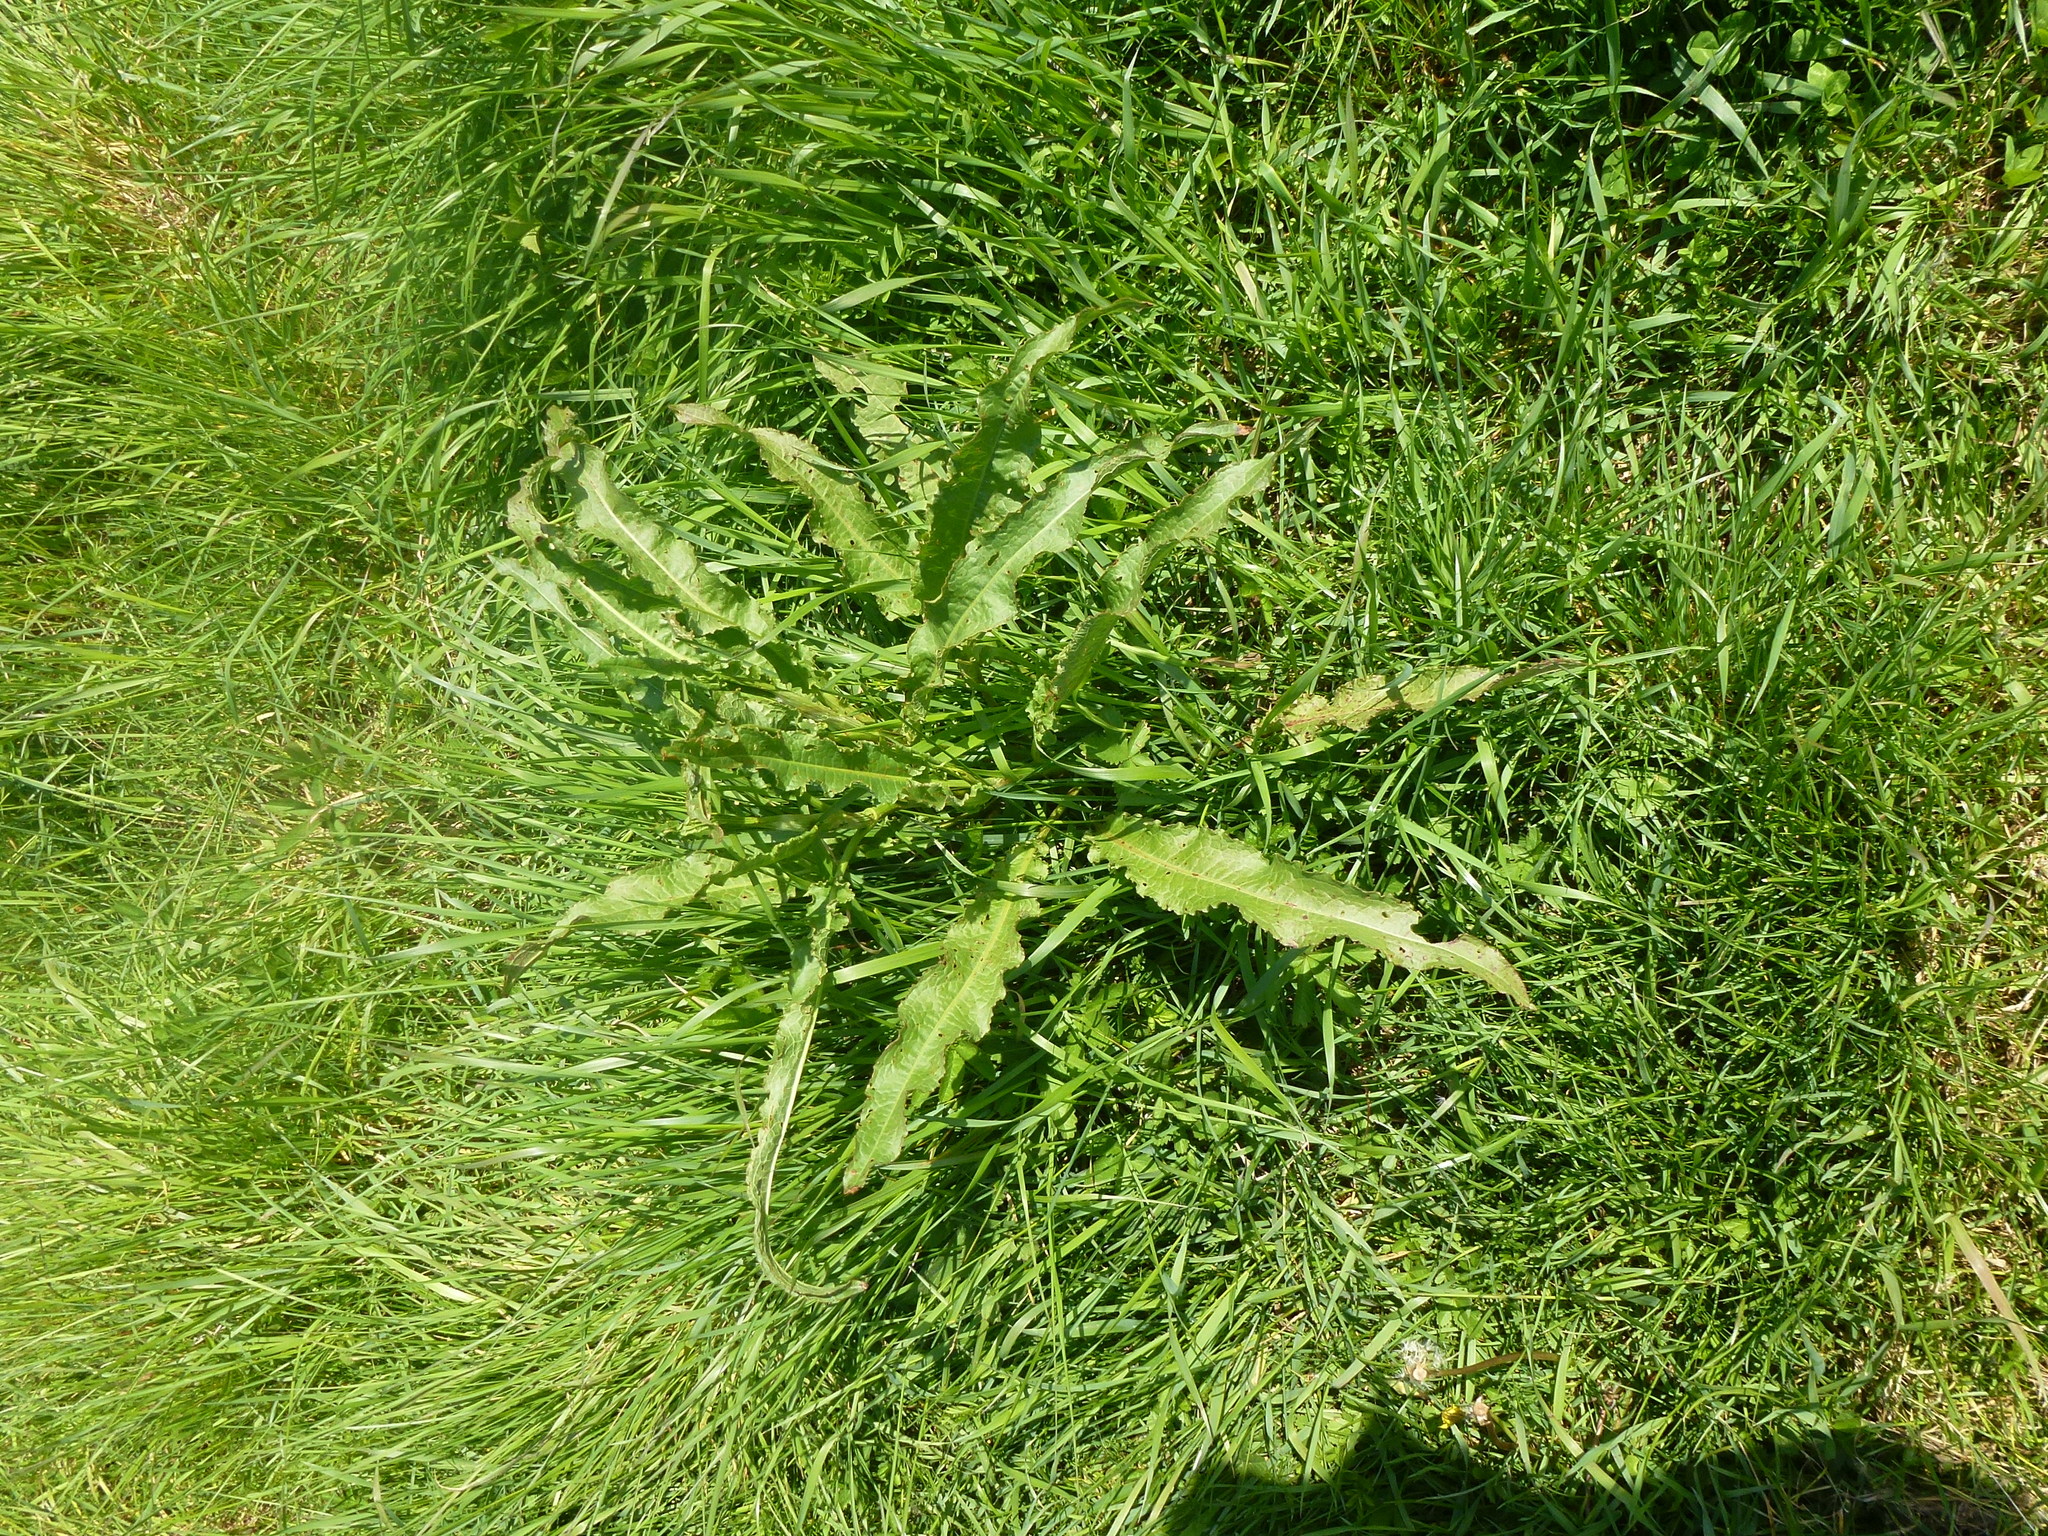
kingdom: Plantae
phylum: Tracheophyta
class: Magnoliopsida
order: Caryophyllales
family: Polygonaceae
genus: Rumex
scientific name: Rumex crispus
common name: Curled dock
